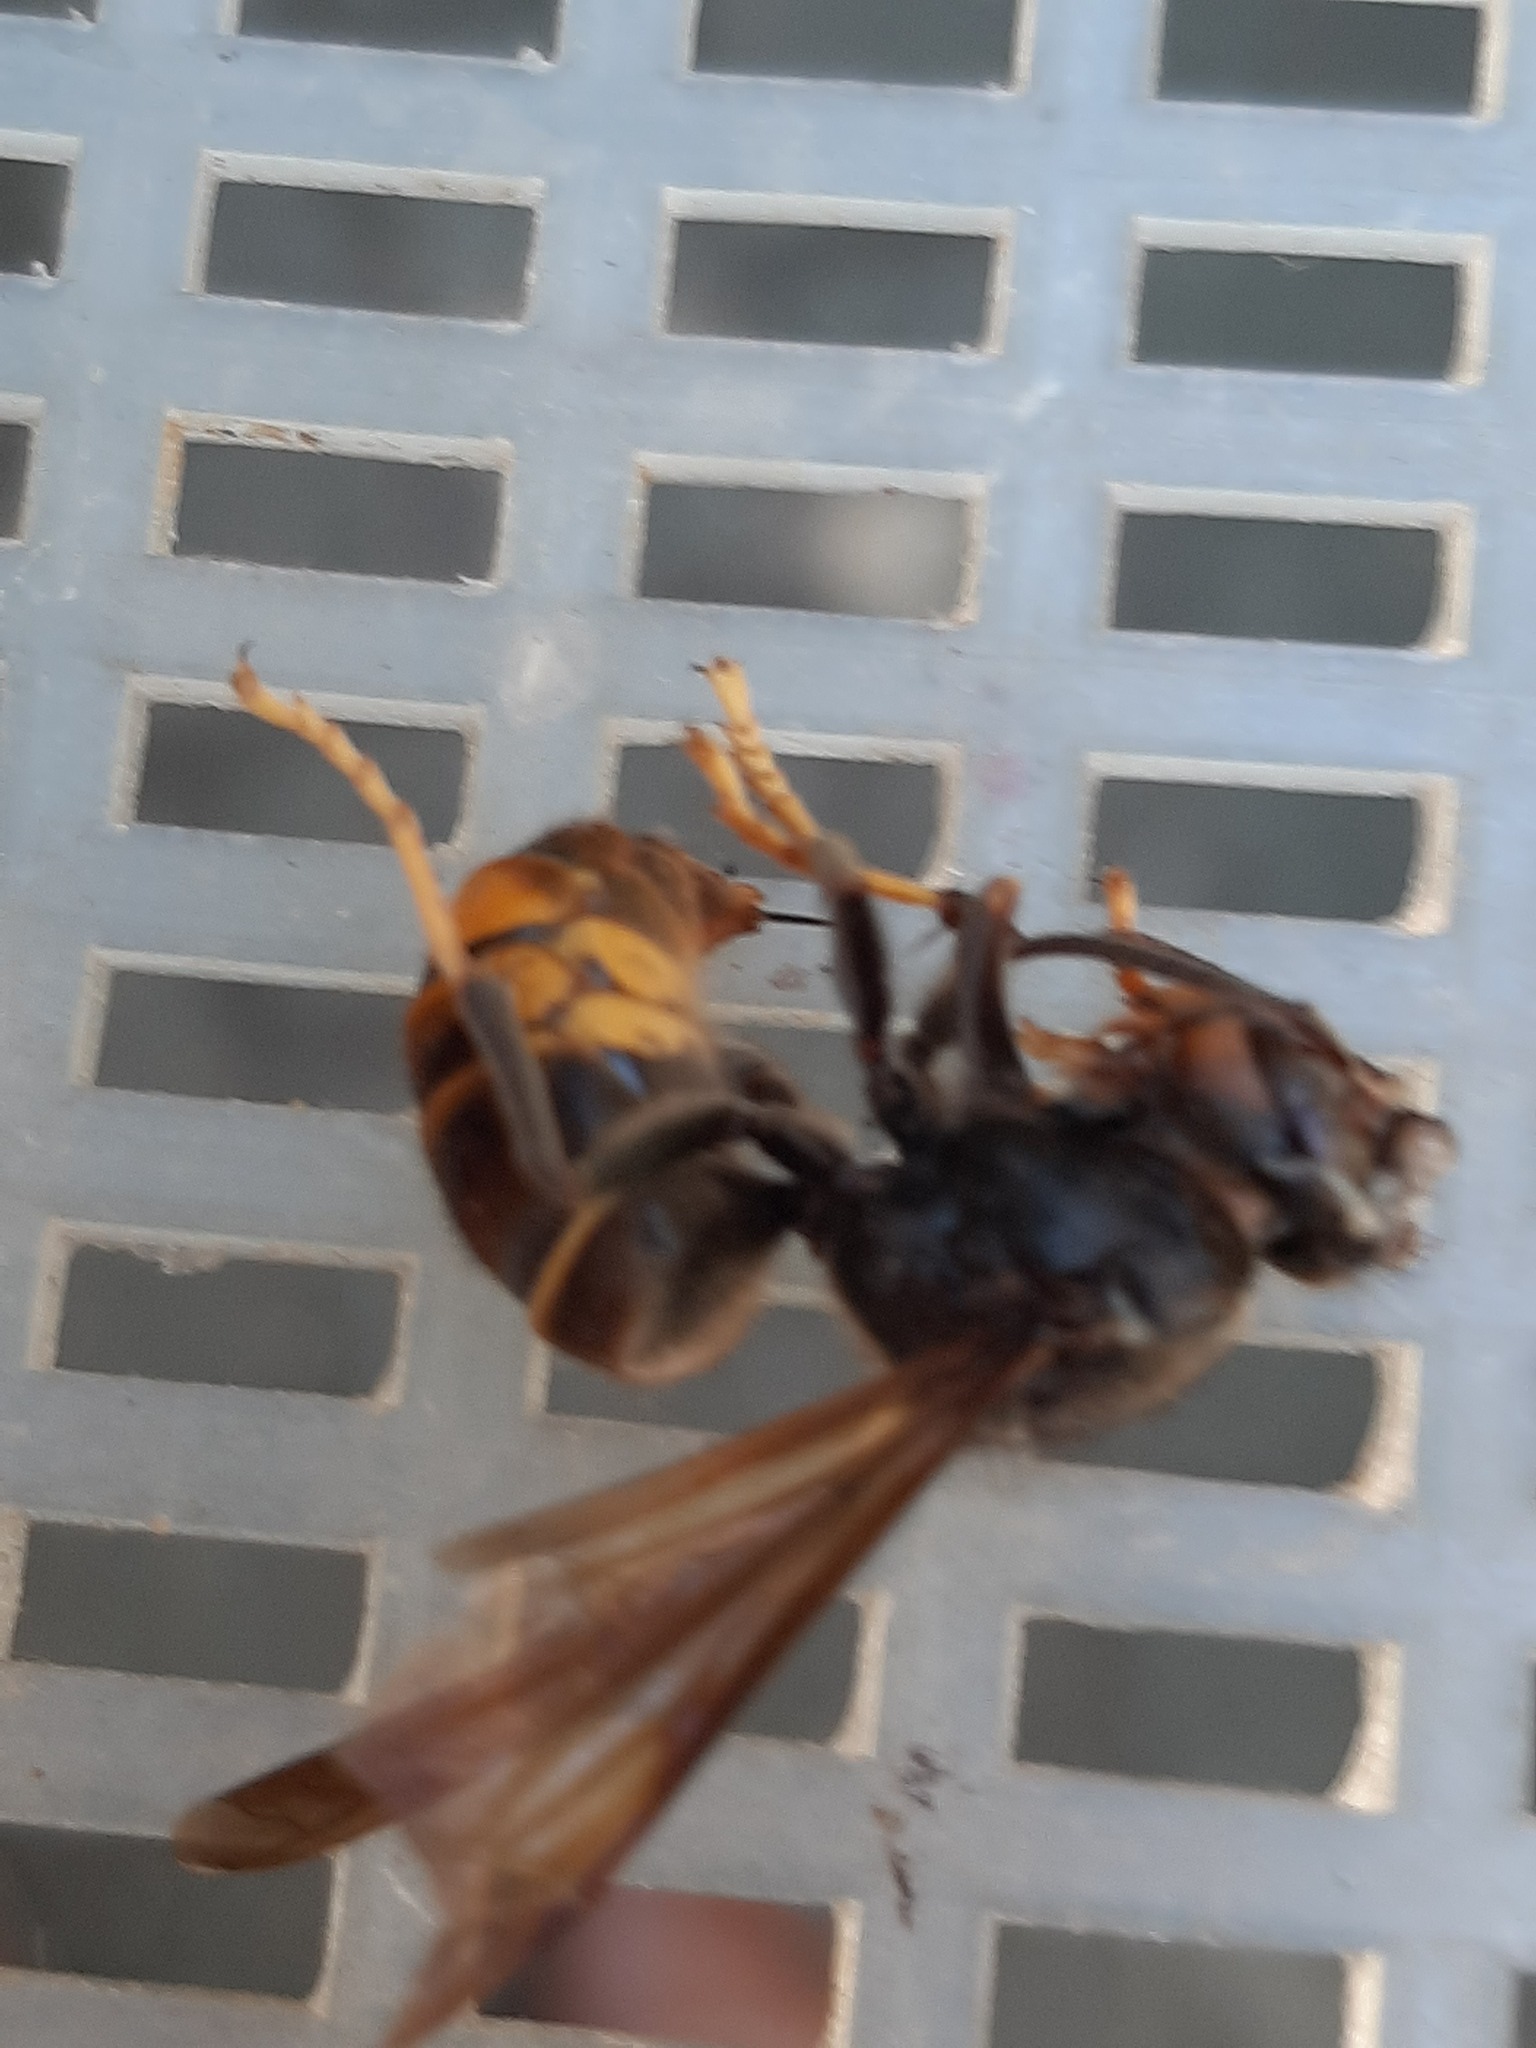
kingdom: Animalia
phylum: Arthropoda
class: Insecta
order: Hymenoptera
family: Vespidae
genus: Vespa
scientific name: Vespa velutina
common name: Asian hornet
